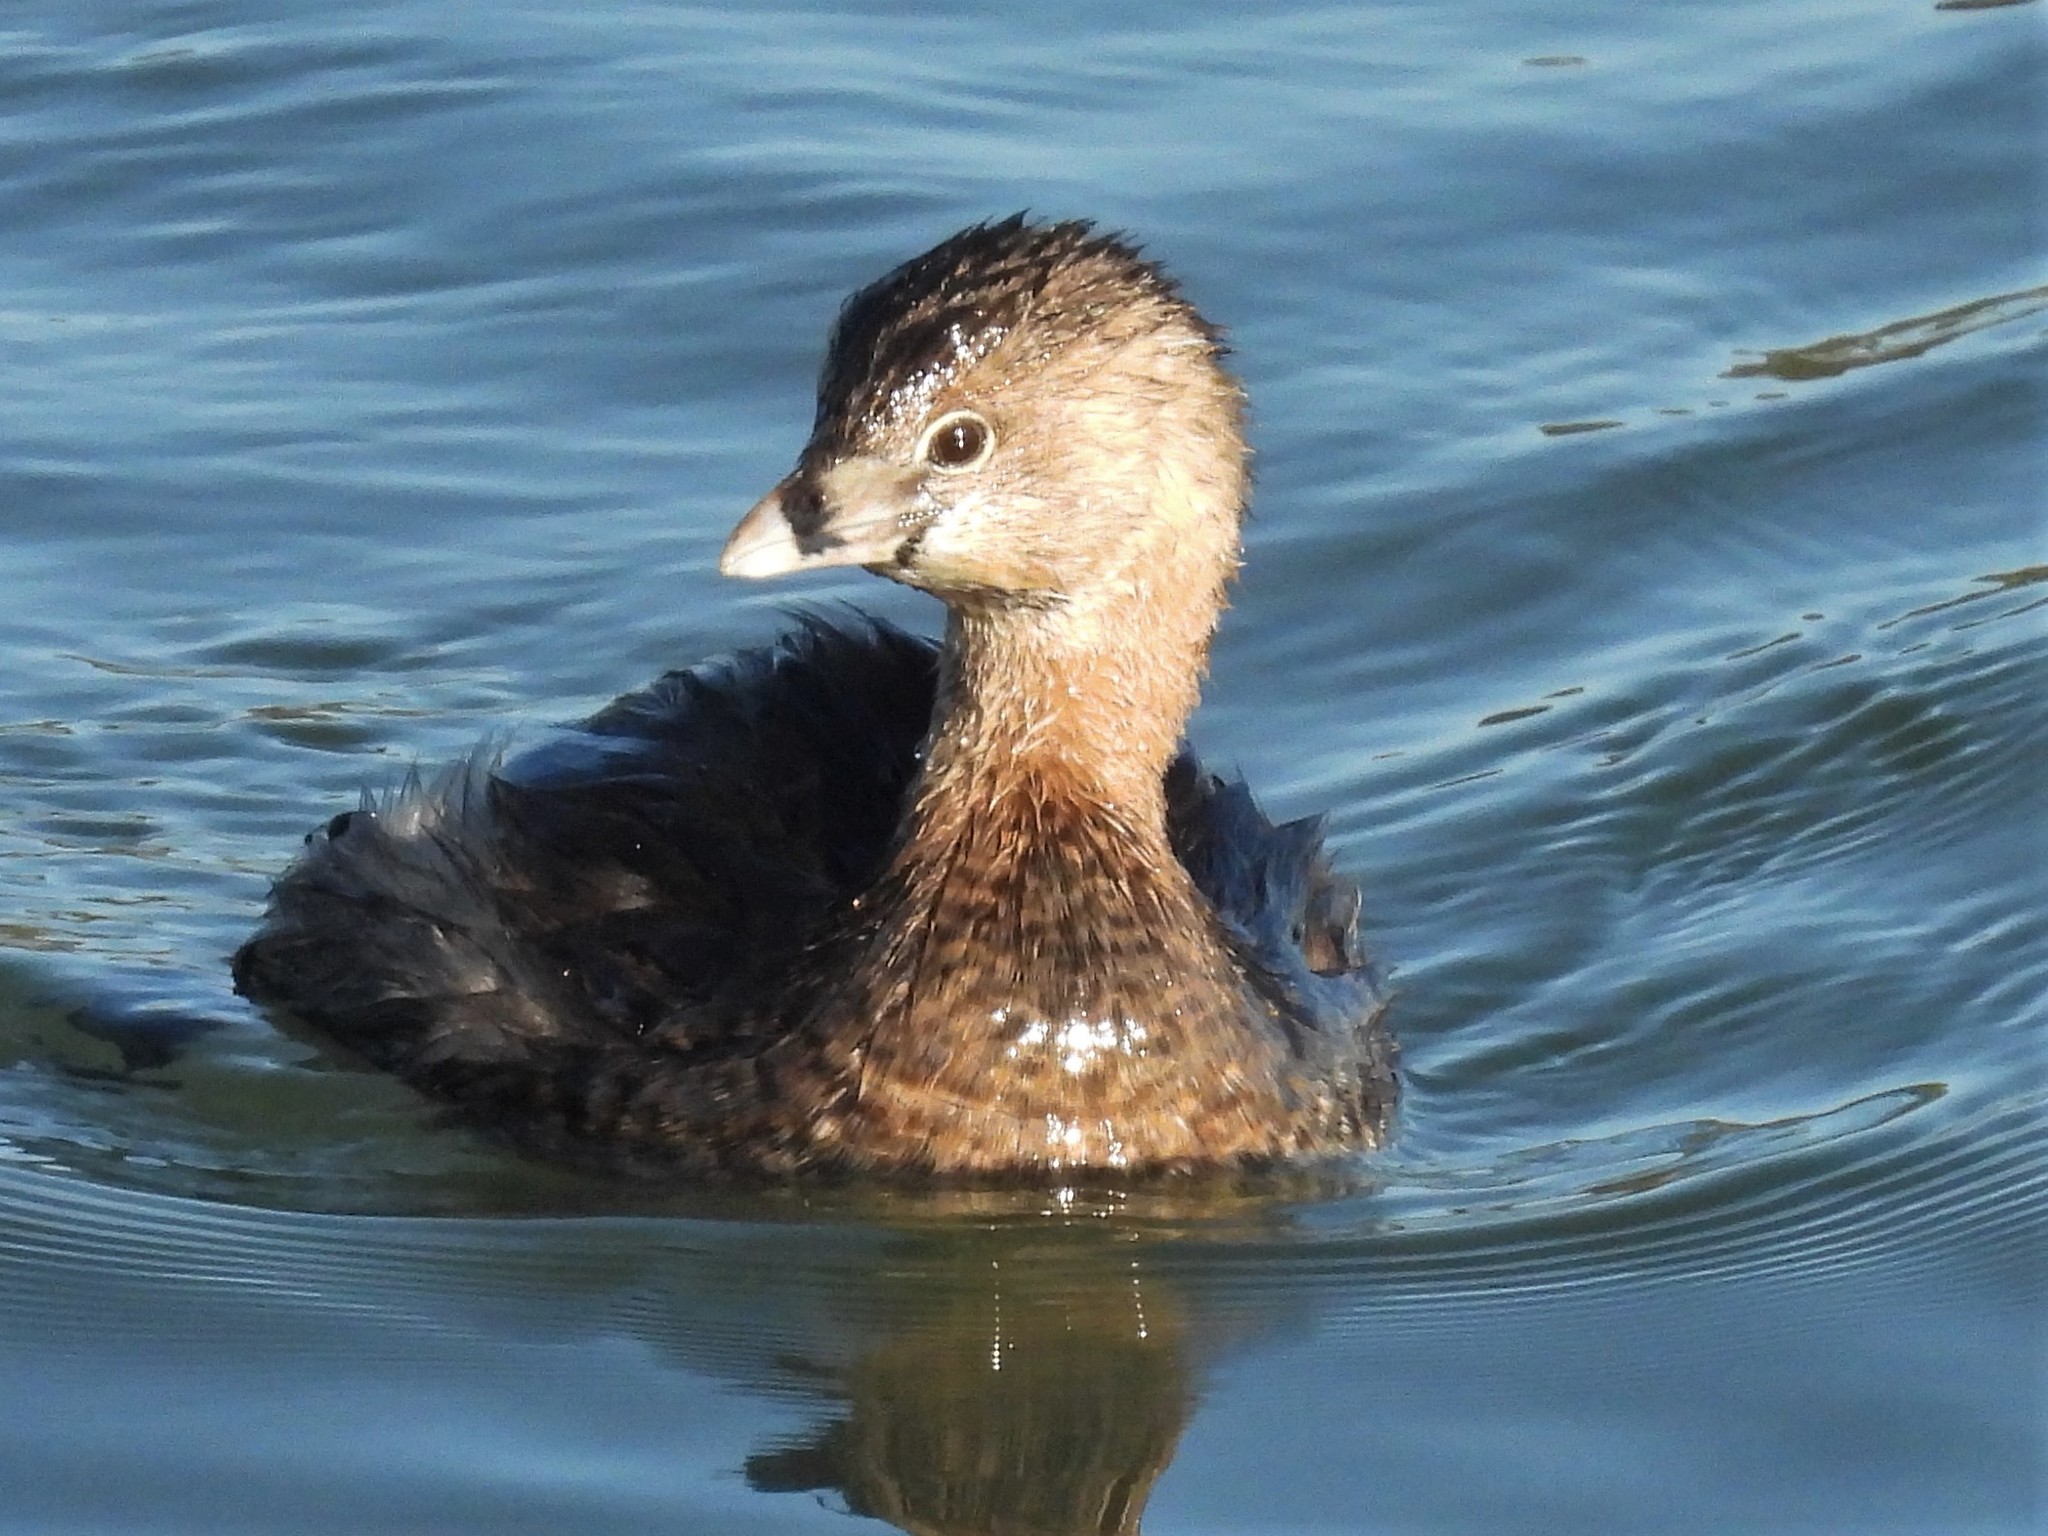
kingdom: Animalia
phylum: Chordata
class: Aves
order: Podicipediformes
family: Podicipedidae
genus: Podilymbus
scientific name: Podilymbus podiceps
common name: Pied-billed grebe
